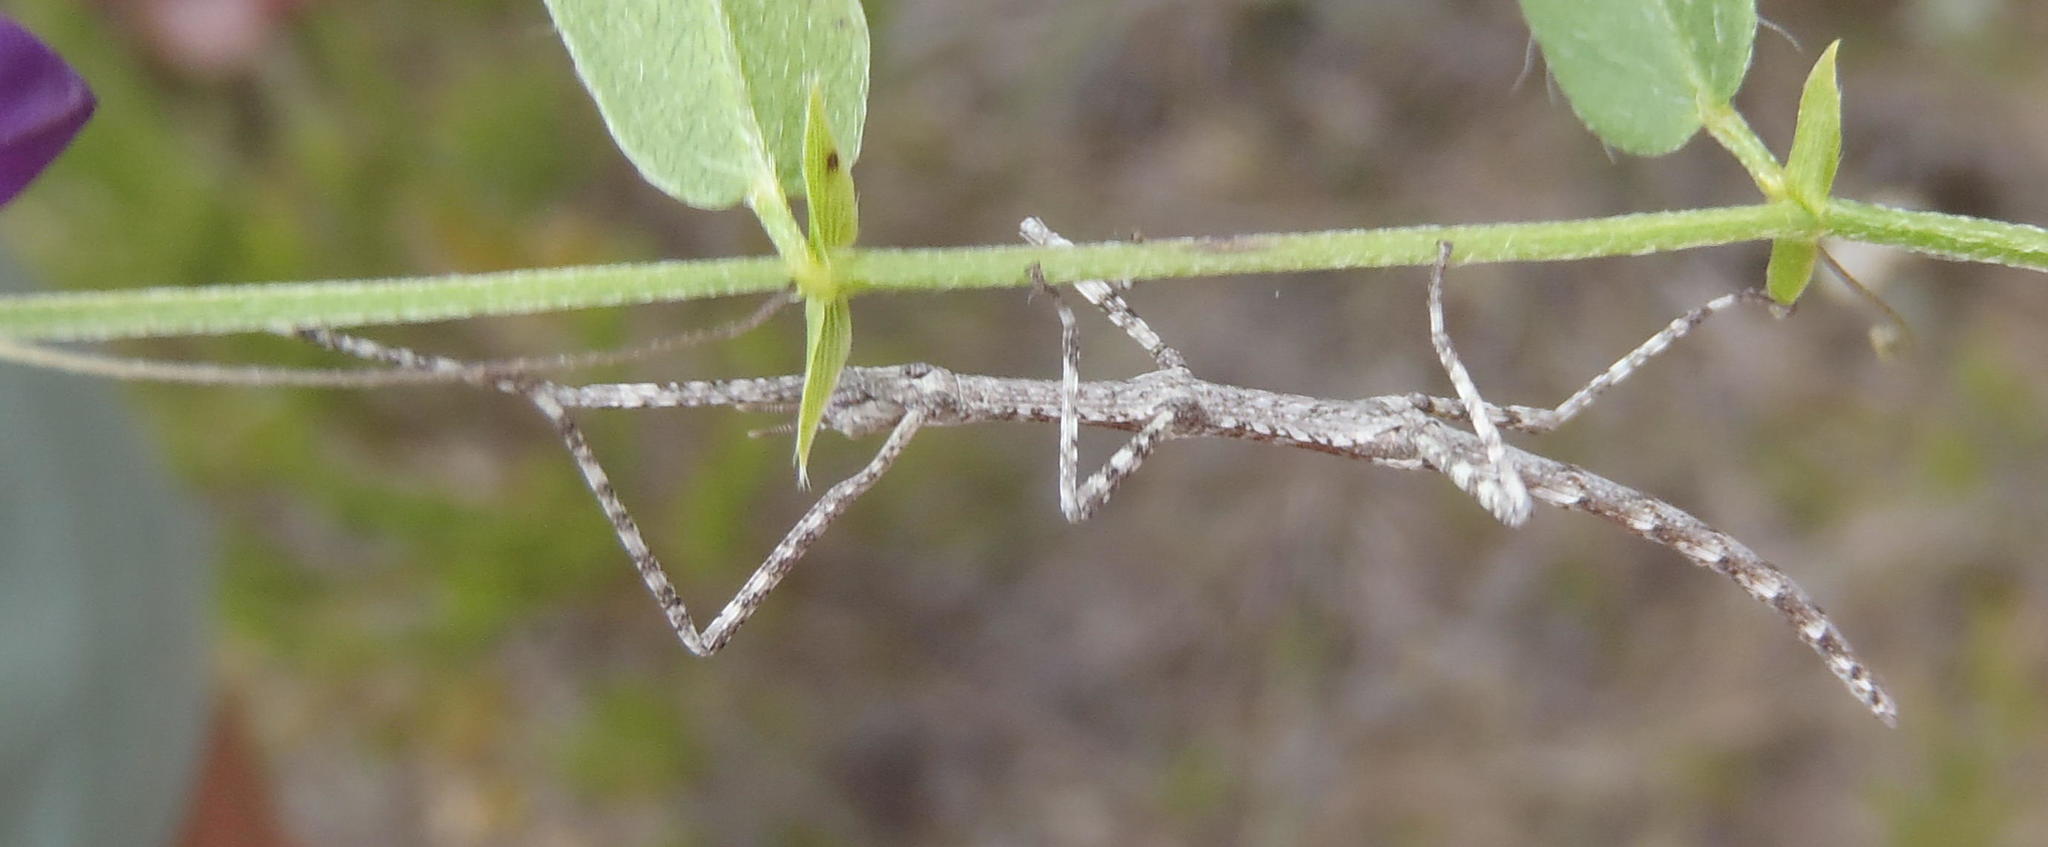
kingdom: Animalia
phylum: Arthropoda
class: Insecta
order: Phasmida
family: Bacillidae
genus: Zehntneria
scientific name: Zehntneria mystica
